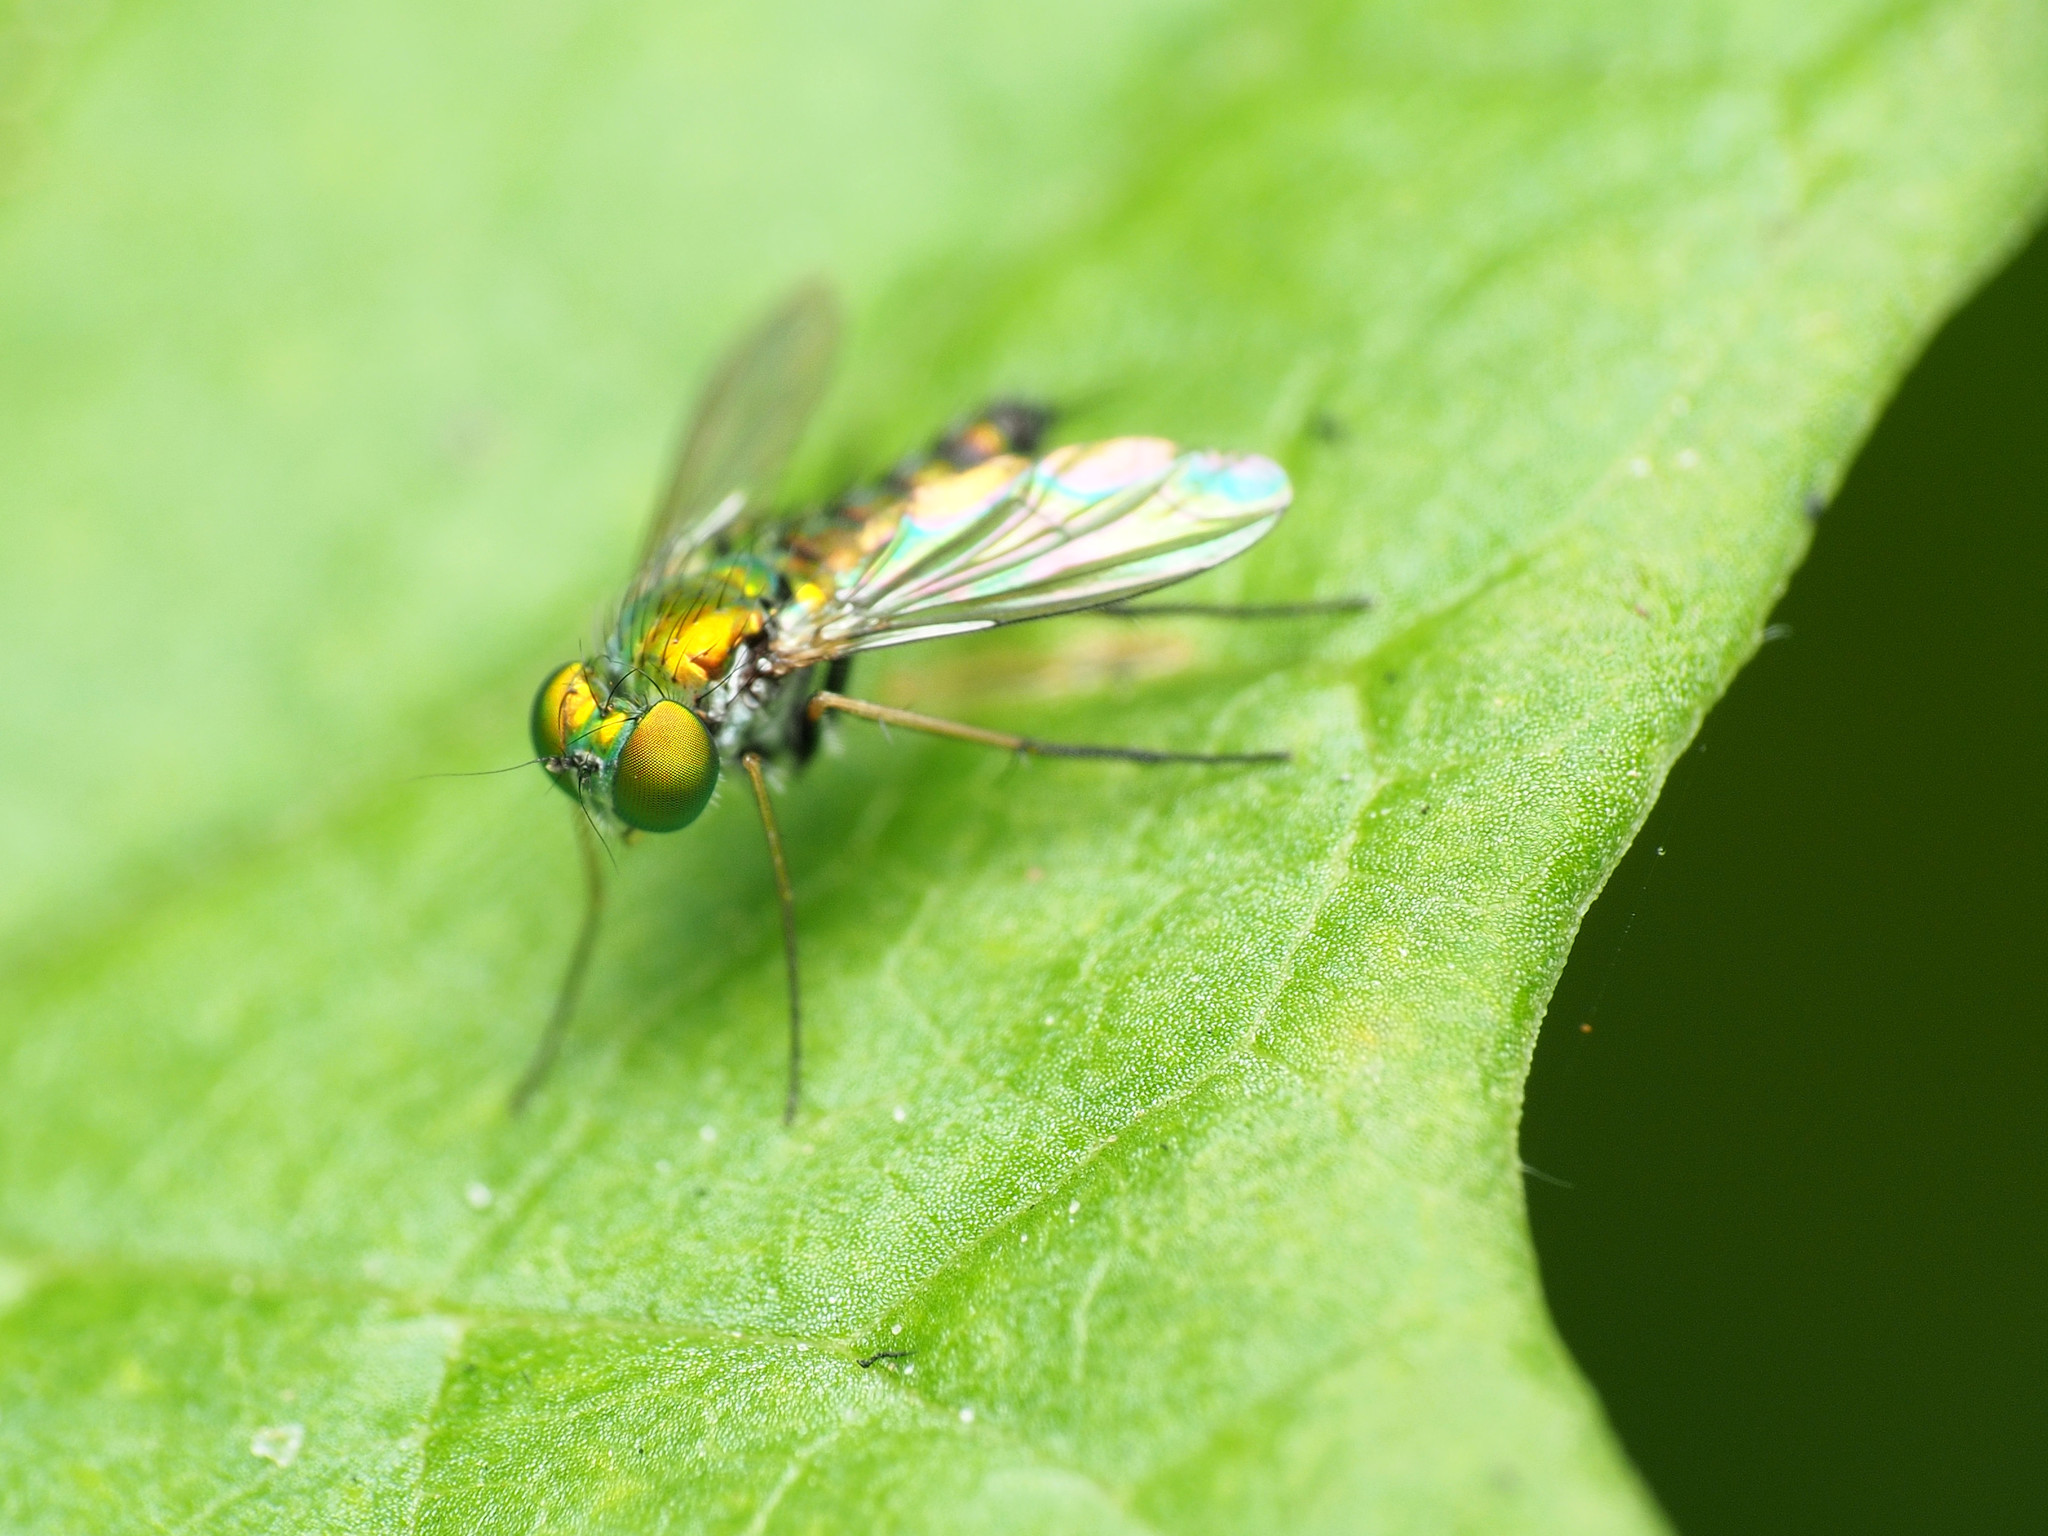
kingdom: Animalia
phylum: Arthropoda
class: Insecta
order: Diptera
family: Dolichopodidae
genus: Condylostylus
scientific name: Condylostylus caudatus
